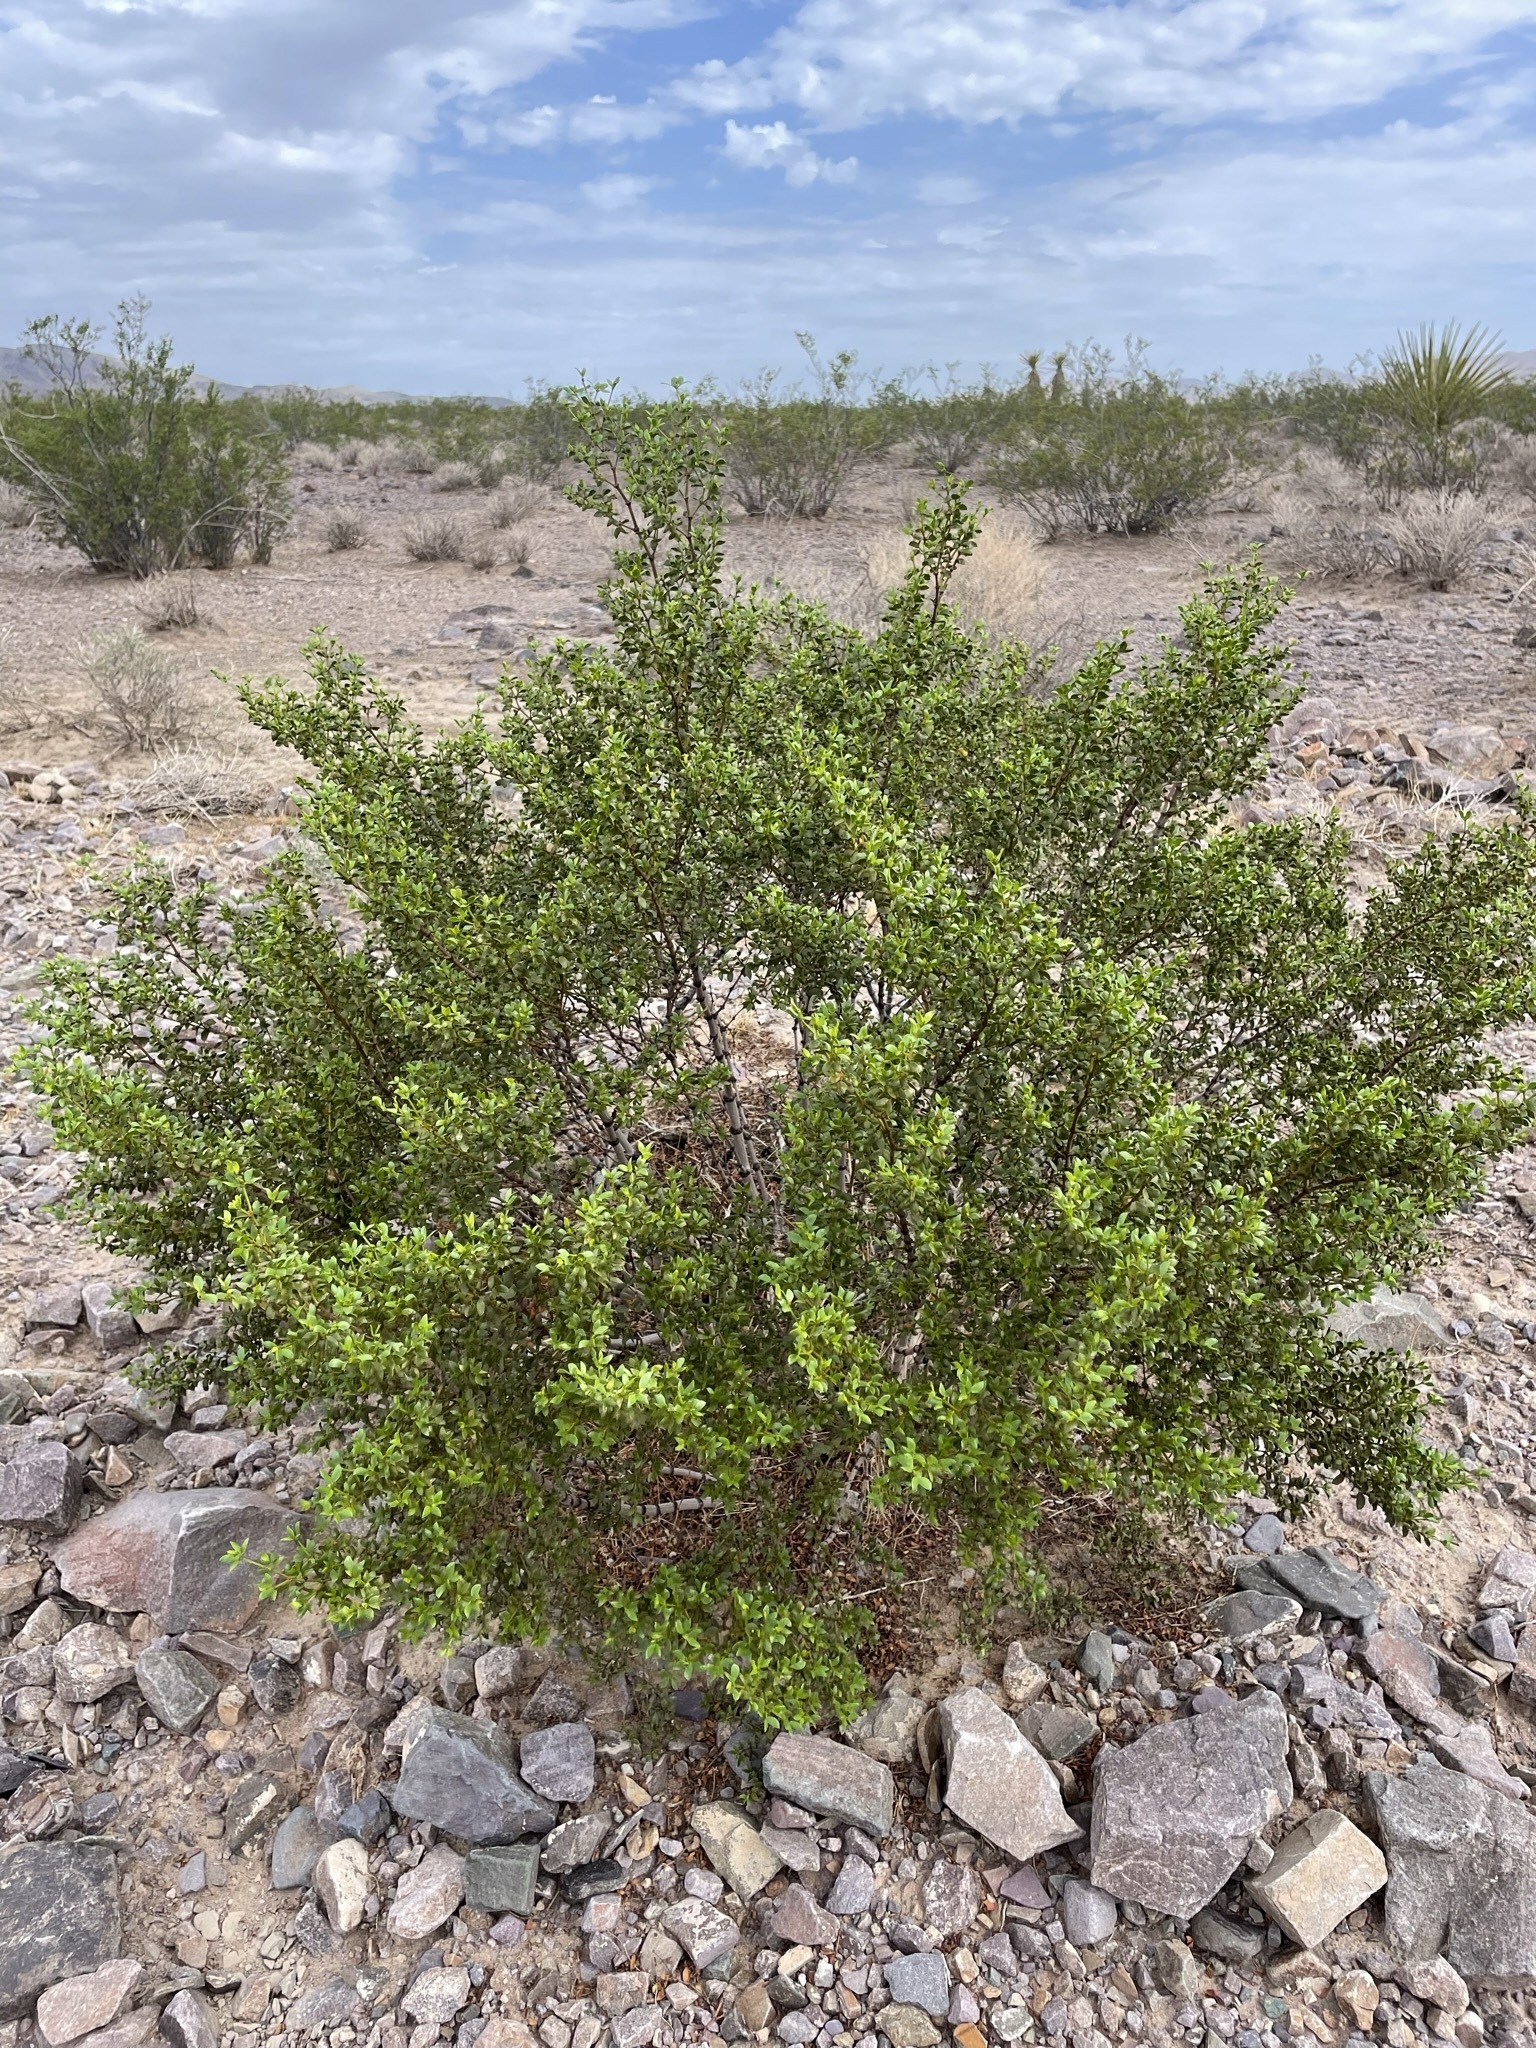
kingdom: Plantae
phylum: Tracheophyta
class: Magnoliopsida
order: Zygophyllales
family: Zygophyllaceae
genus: Larrea
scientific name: Larrea tridentata
